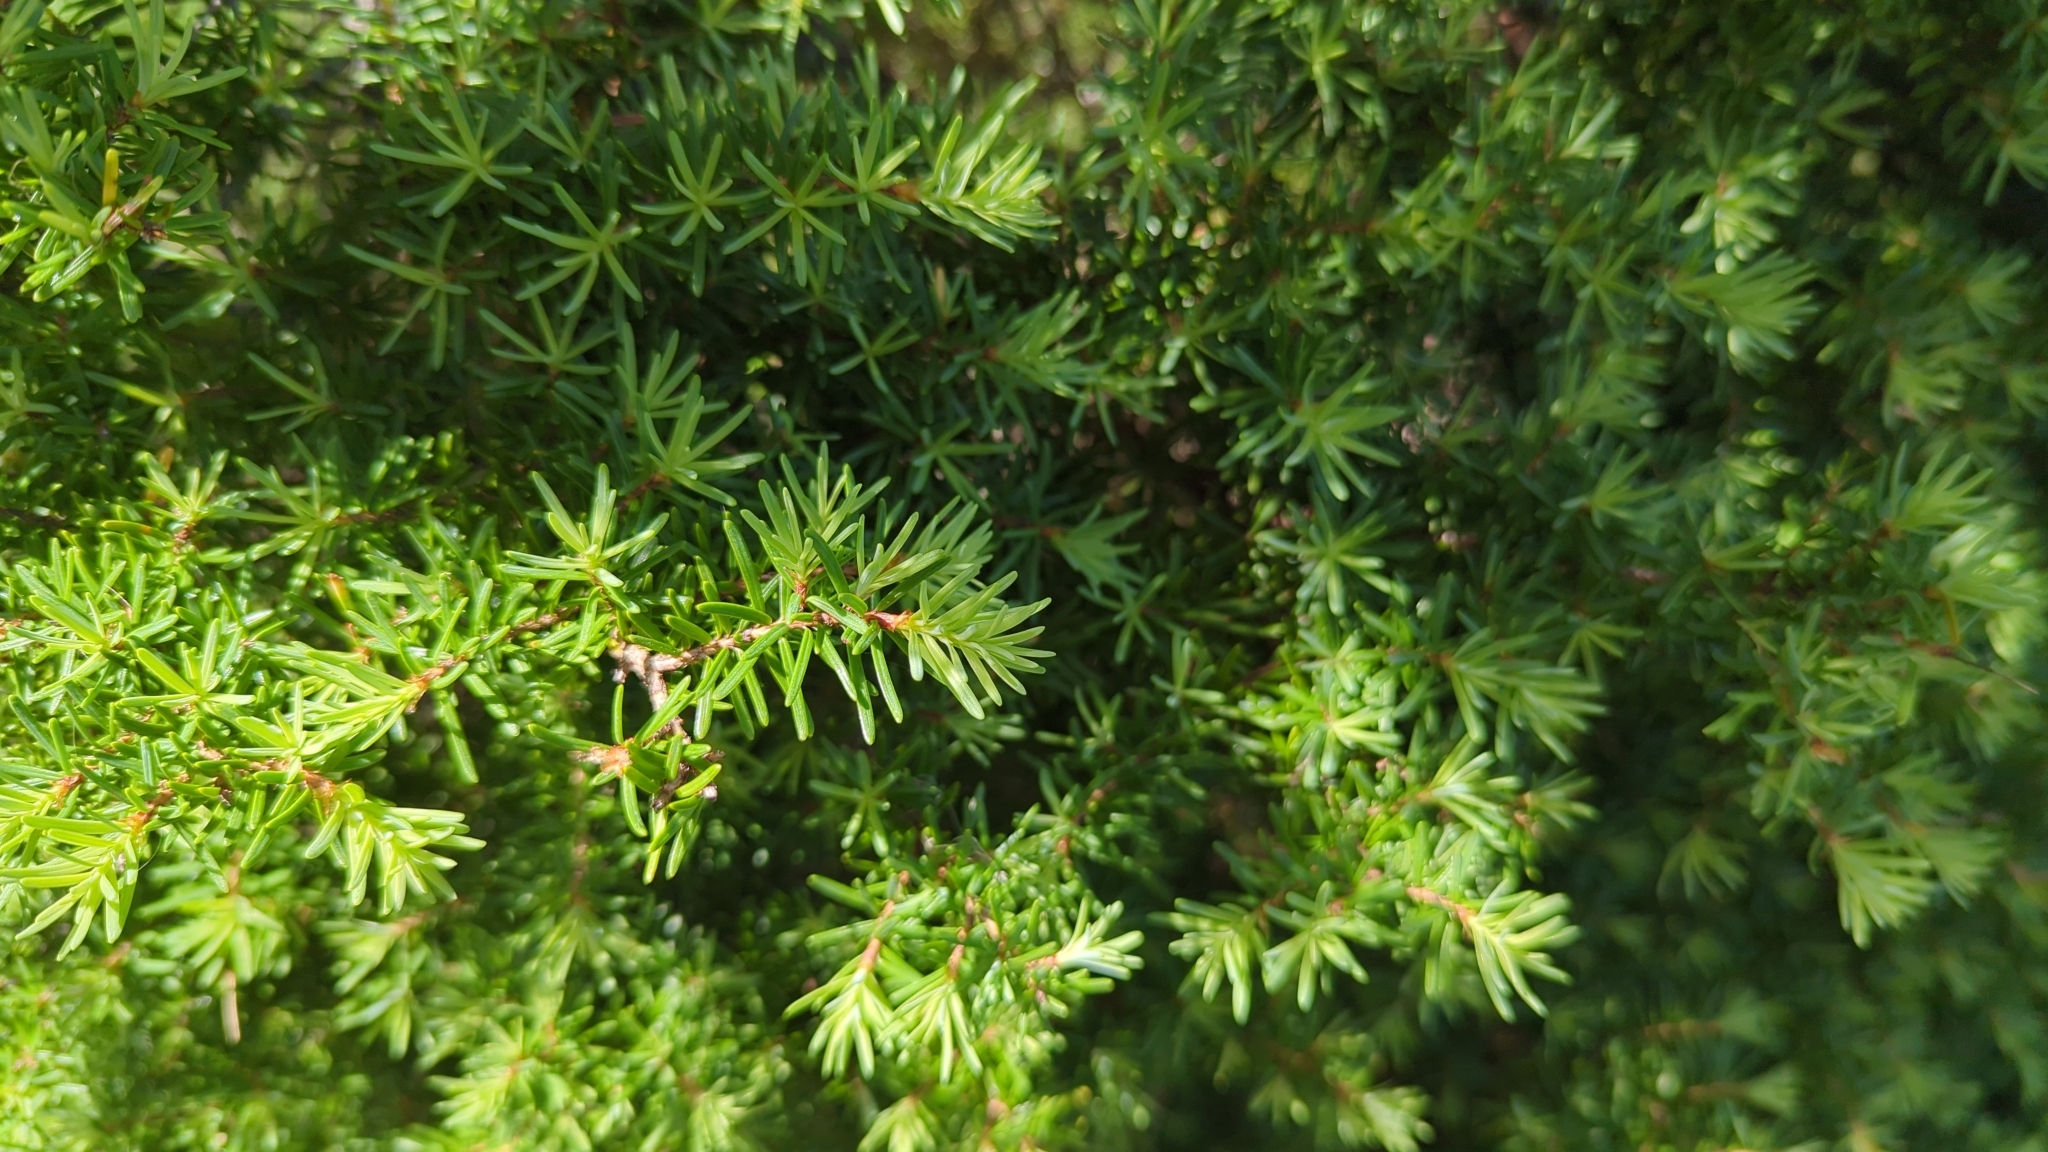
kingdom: Plantae
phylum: Tracheophyta
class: Pinopsida
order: Pinales
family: Pinaceae
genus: Tsuga
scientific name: Tsuga mertensiana
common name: Mountain hemlock
